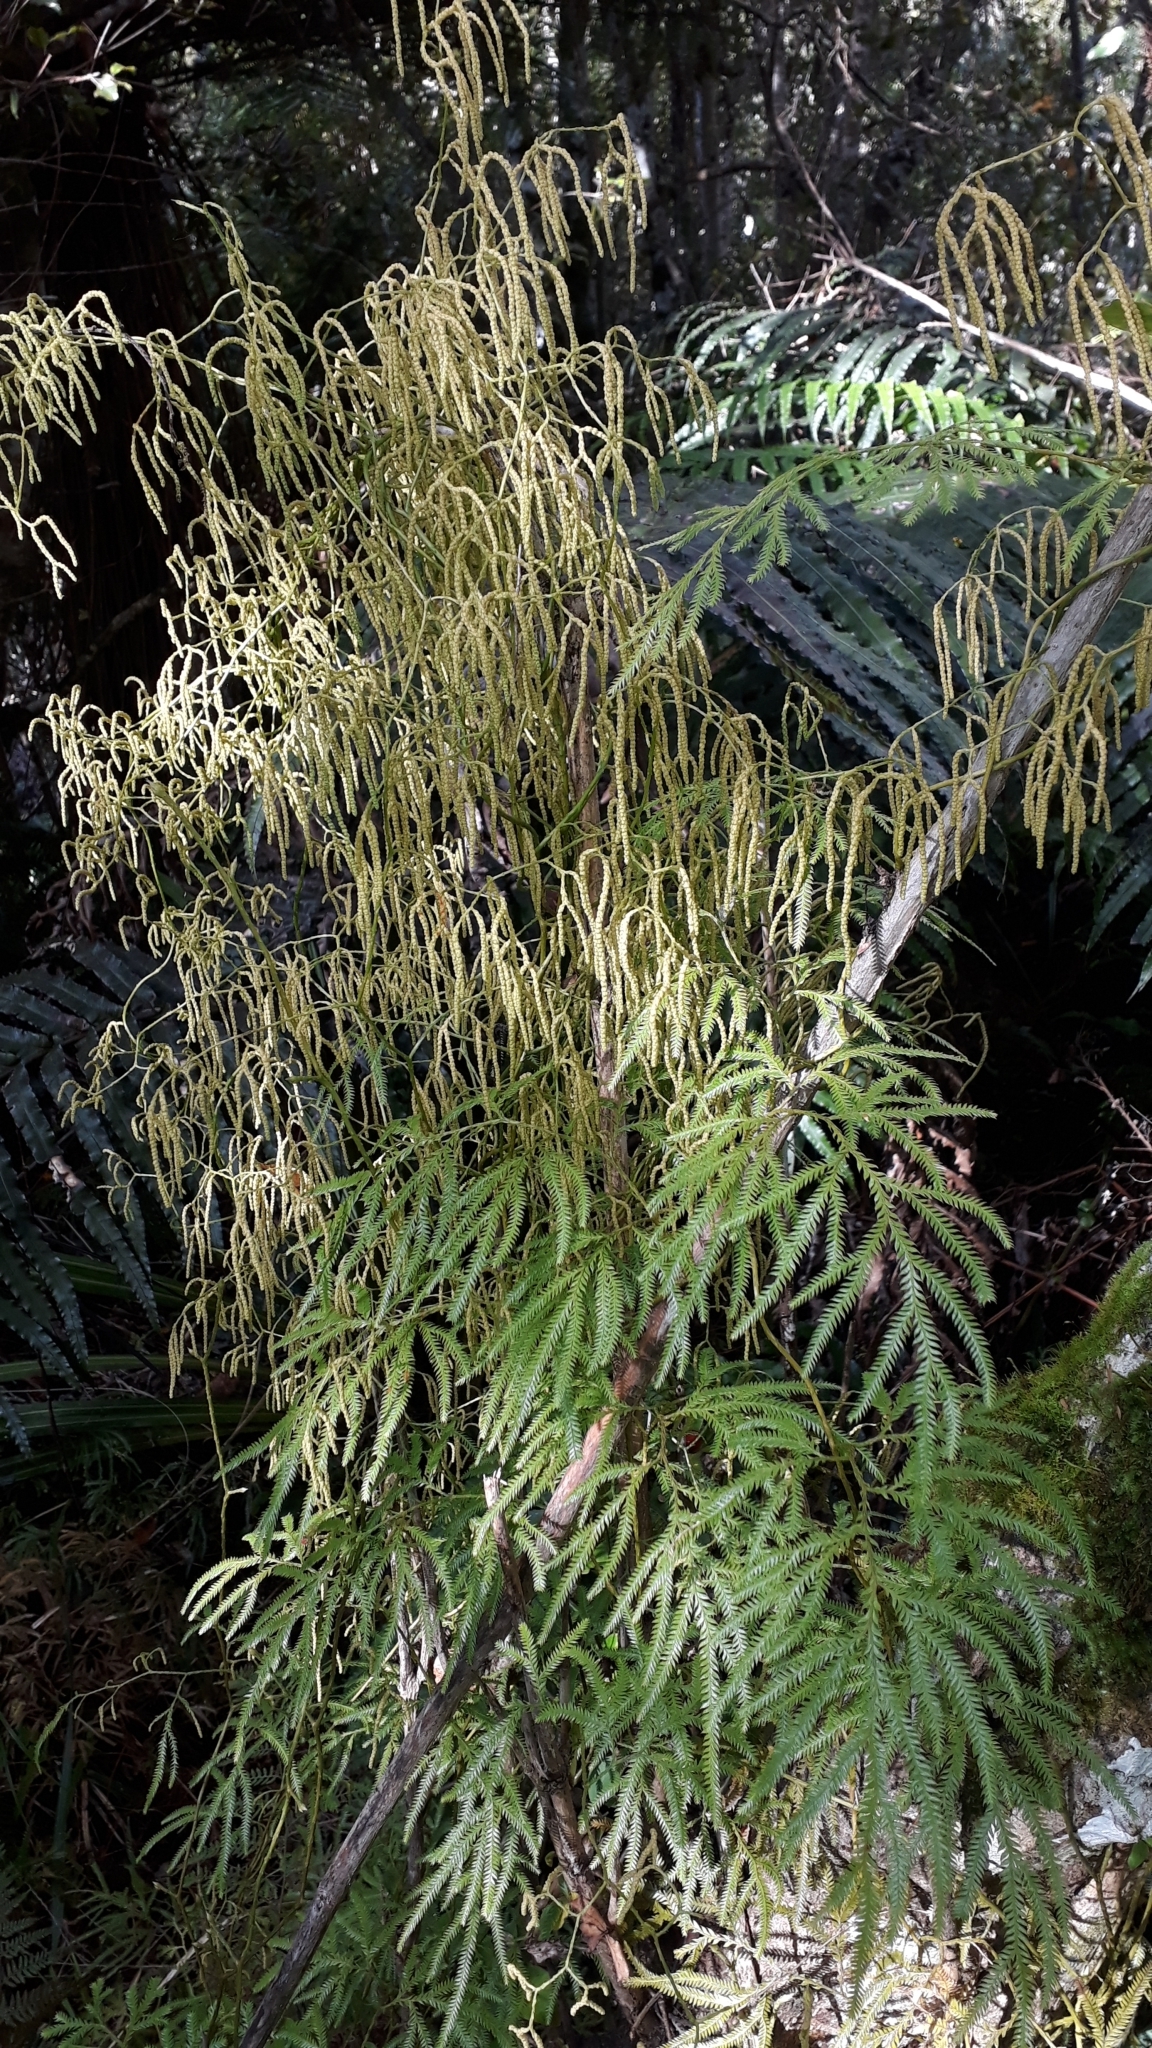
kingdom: Plantae
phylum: Tracheophyta
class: Lycopodiopsida
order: Lycopodiales
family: Lycopodiaceae
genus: Lycopodium
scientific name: Lycopodium volubile
